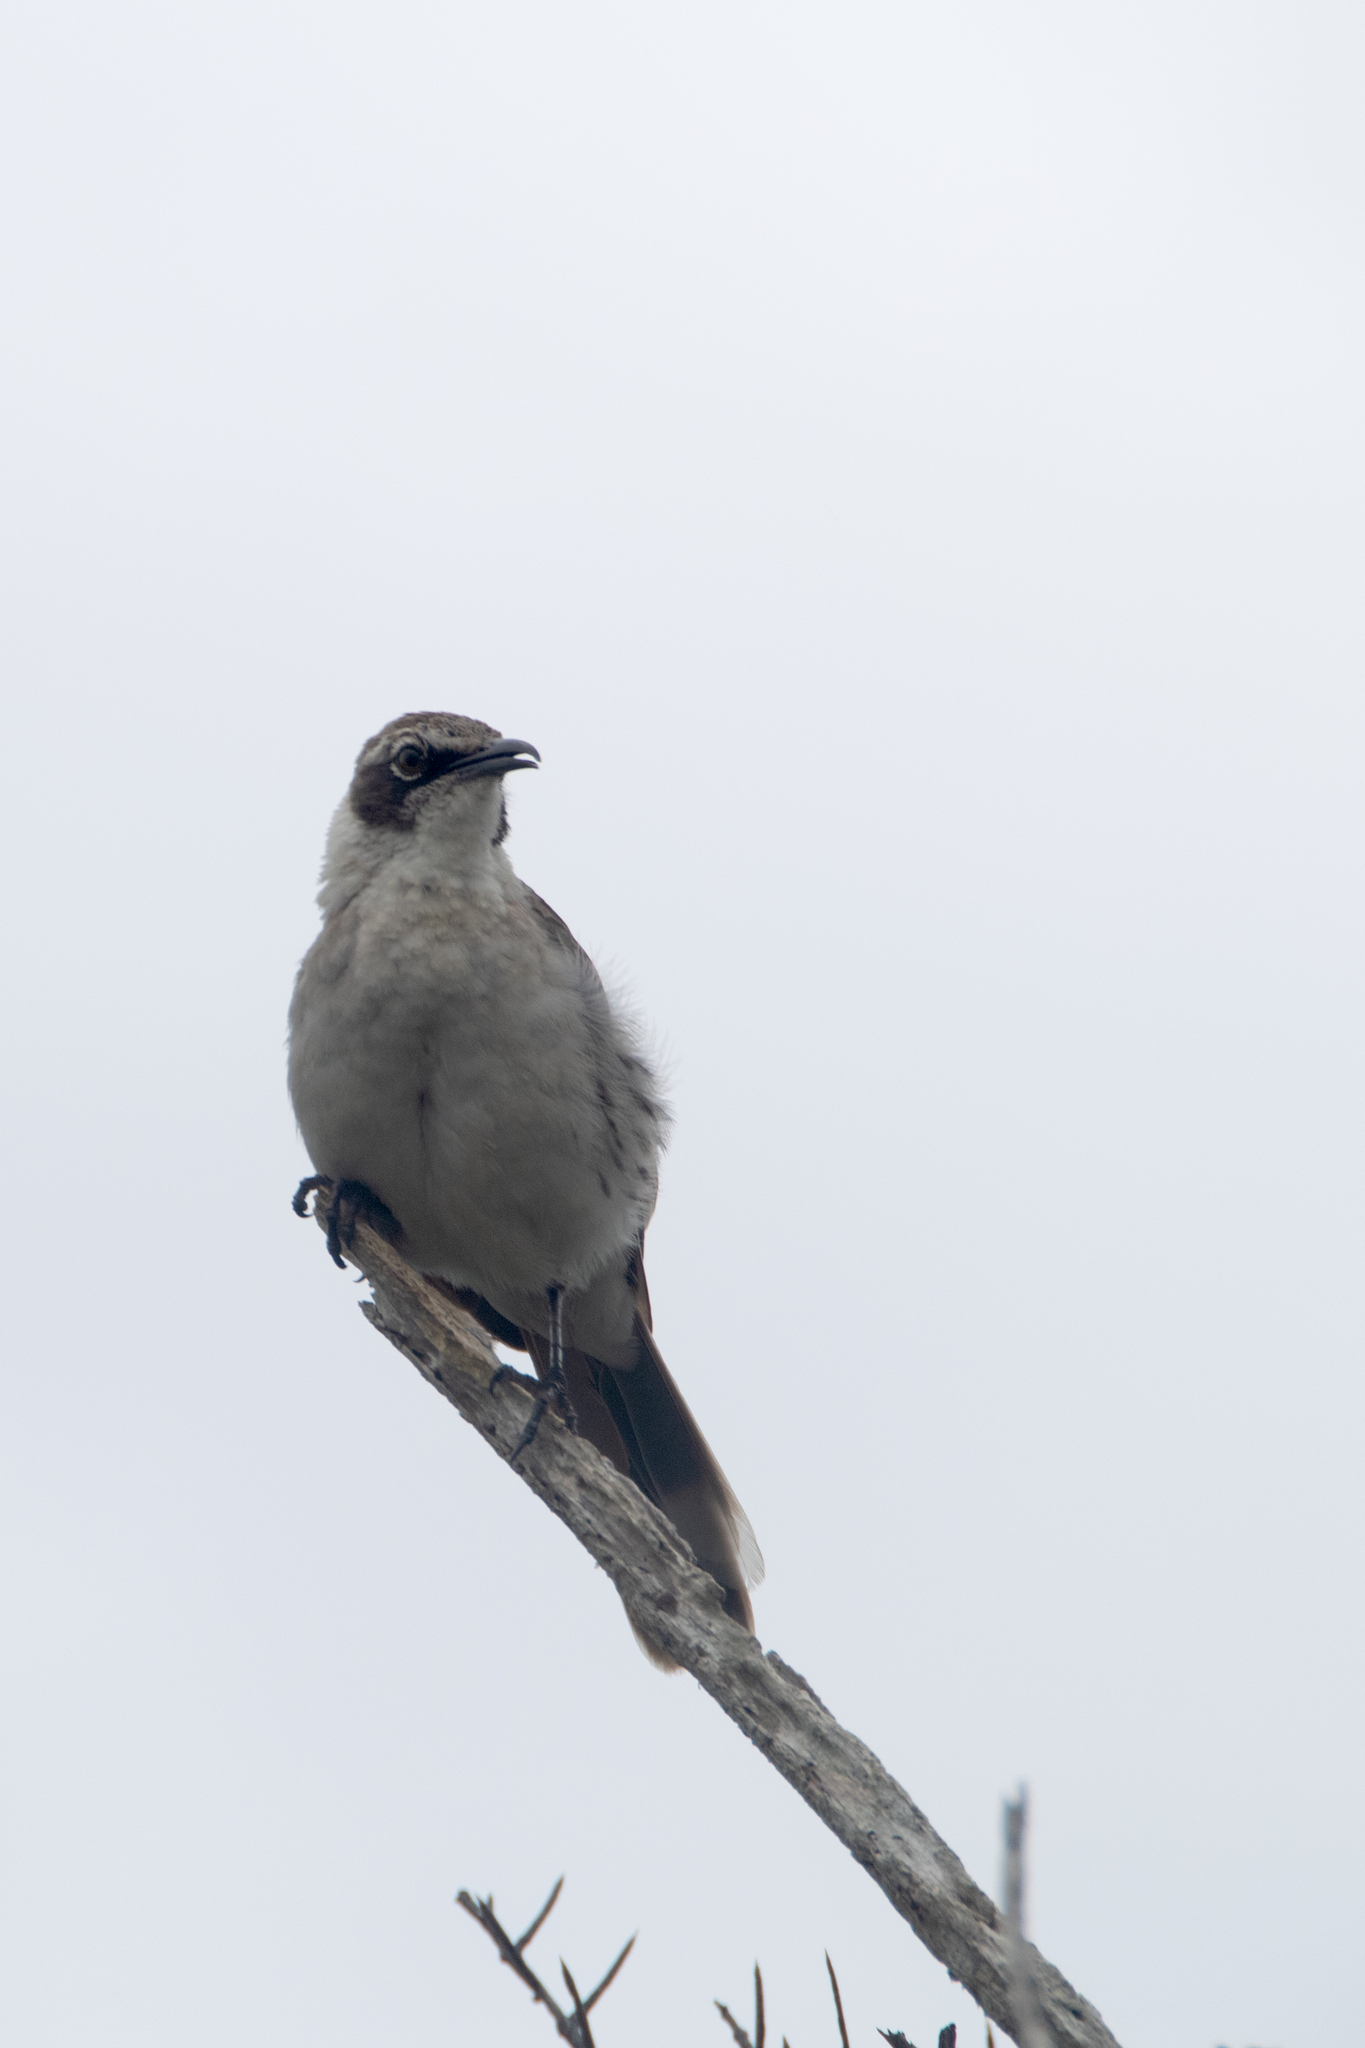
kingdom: Animalia
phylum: Chordata
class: Aves
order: Passeriformes
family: Mimidae
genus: Mimus
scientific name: Mimus parvulus
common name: Galapagos mockingbird
